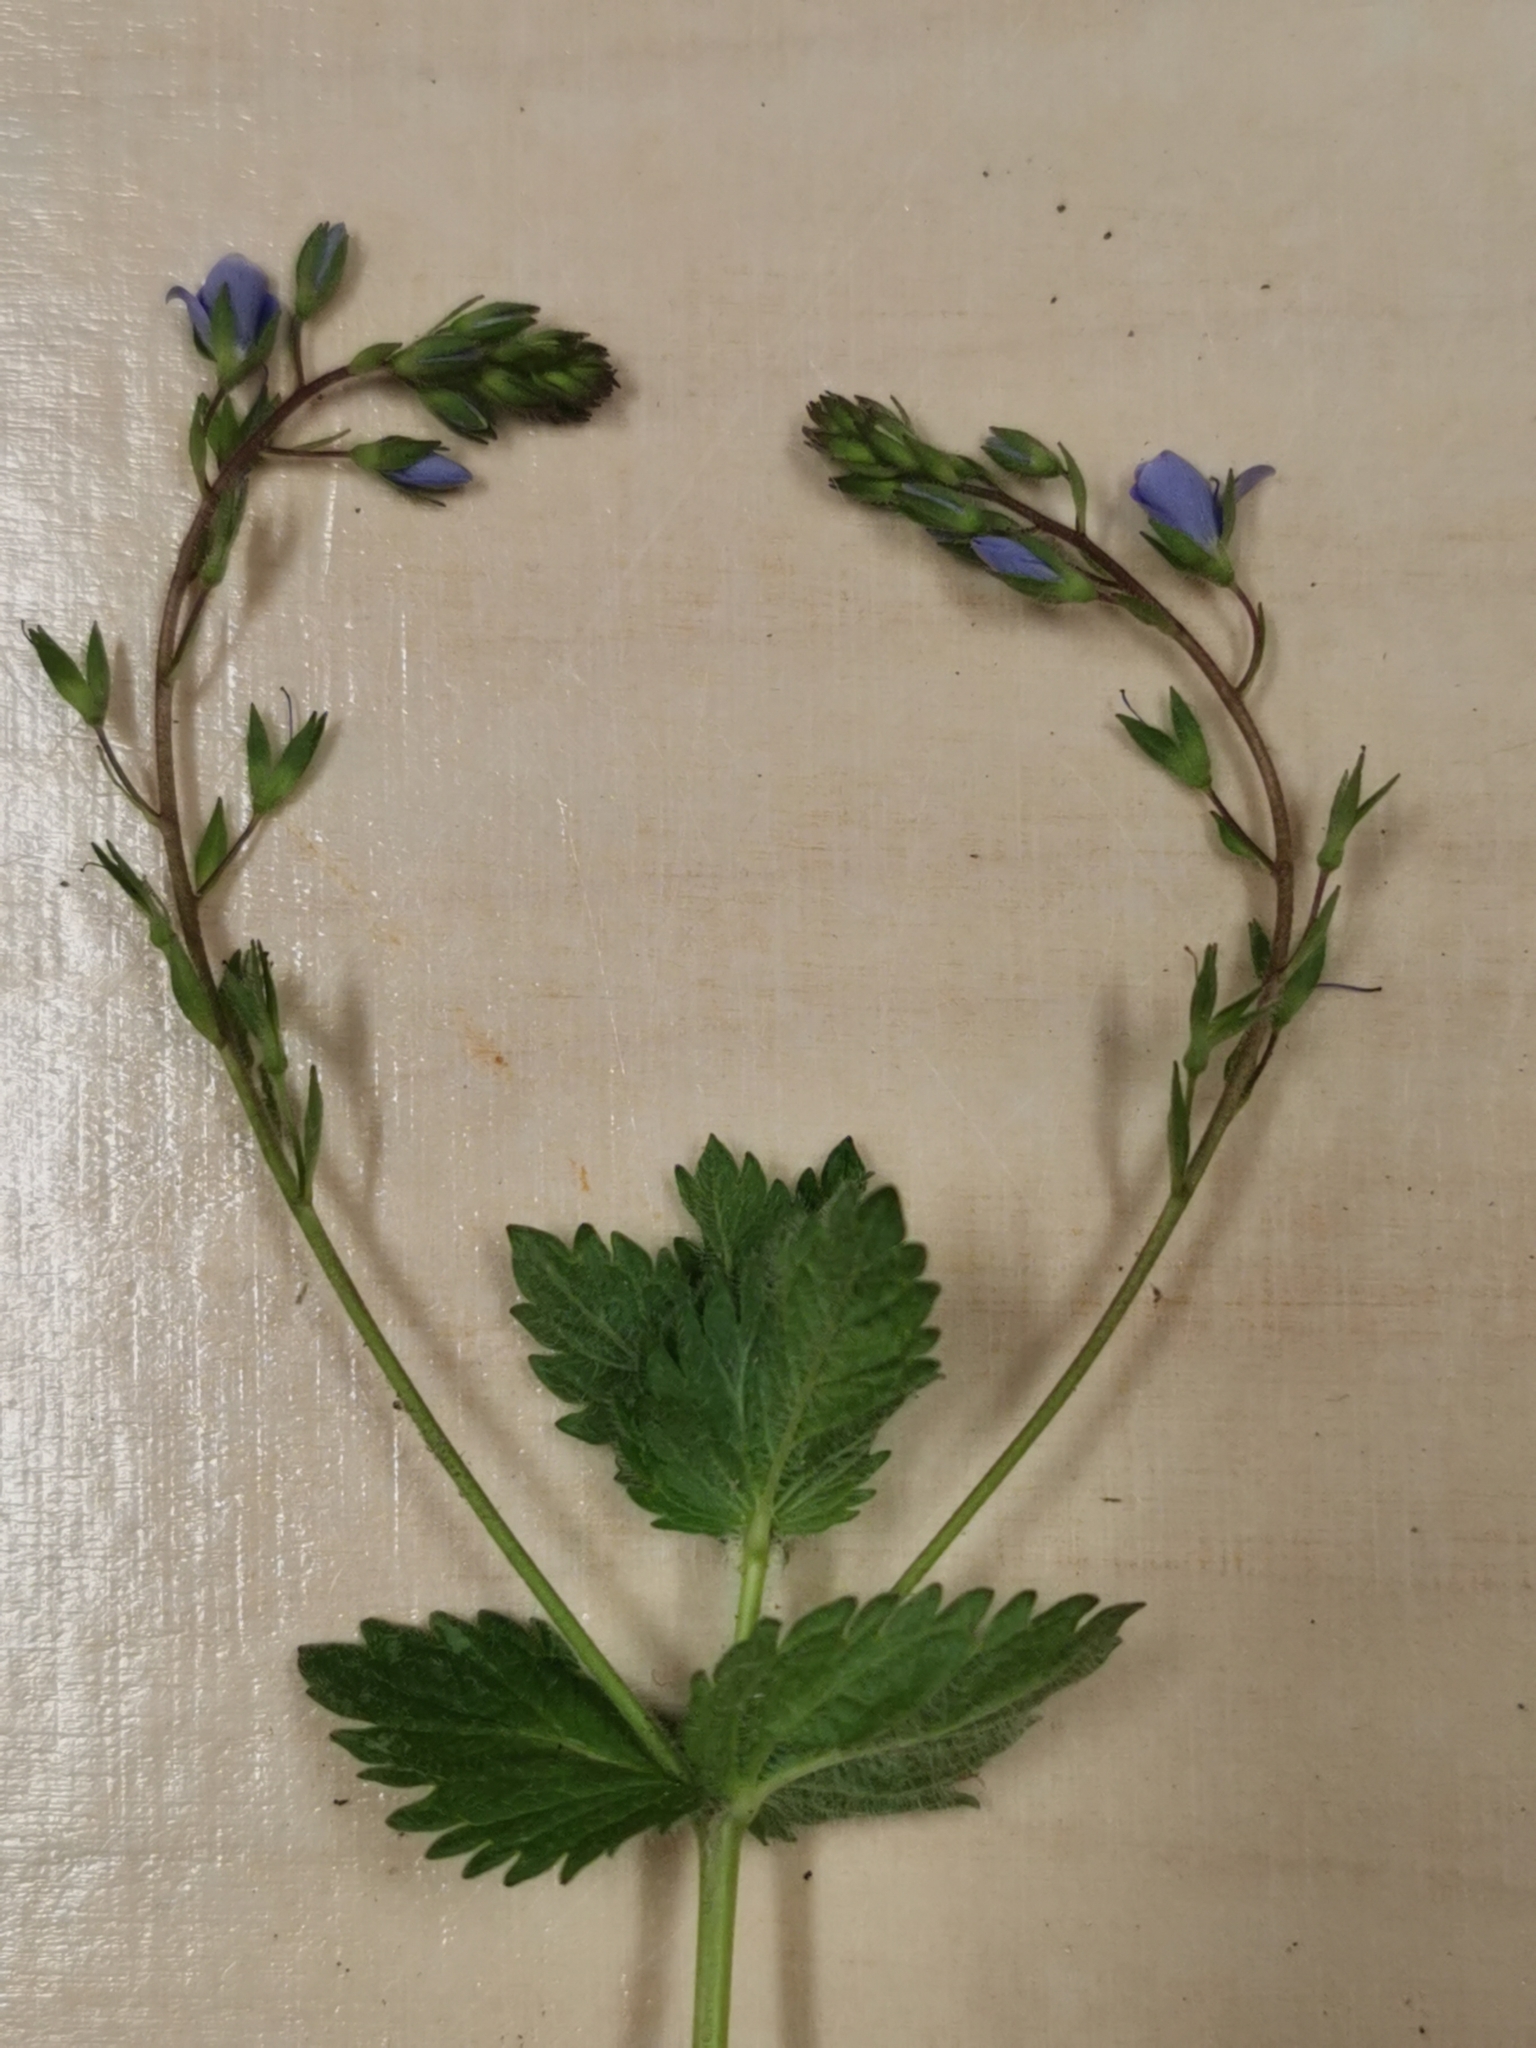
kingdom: Plantae
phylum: Tracheophyta
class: Magnoliopsida
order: Lamiales
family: Plantaginaceae
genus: Veronica
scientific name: Veronica chamaedrys
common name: Germander speedwell
